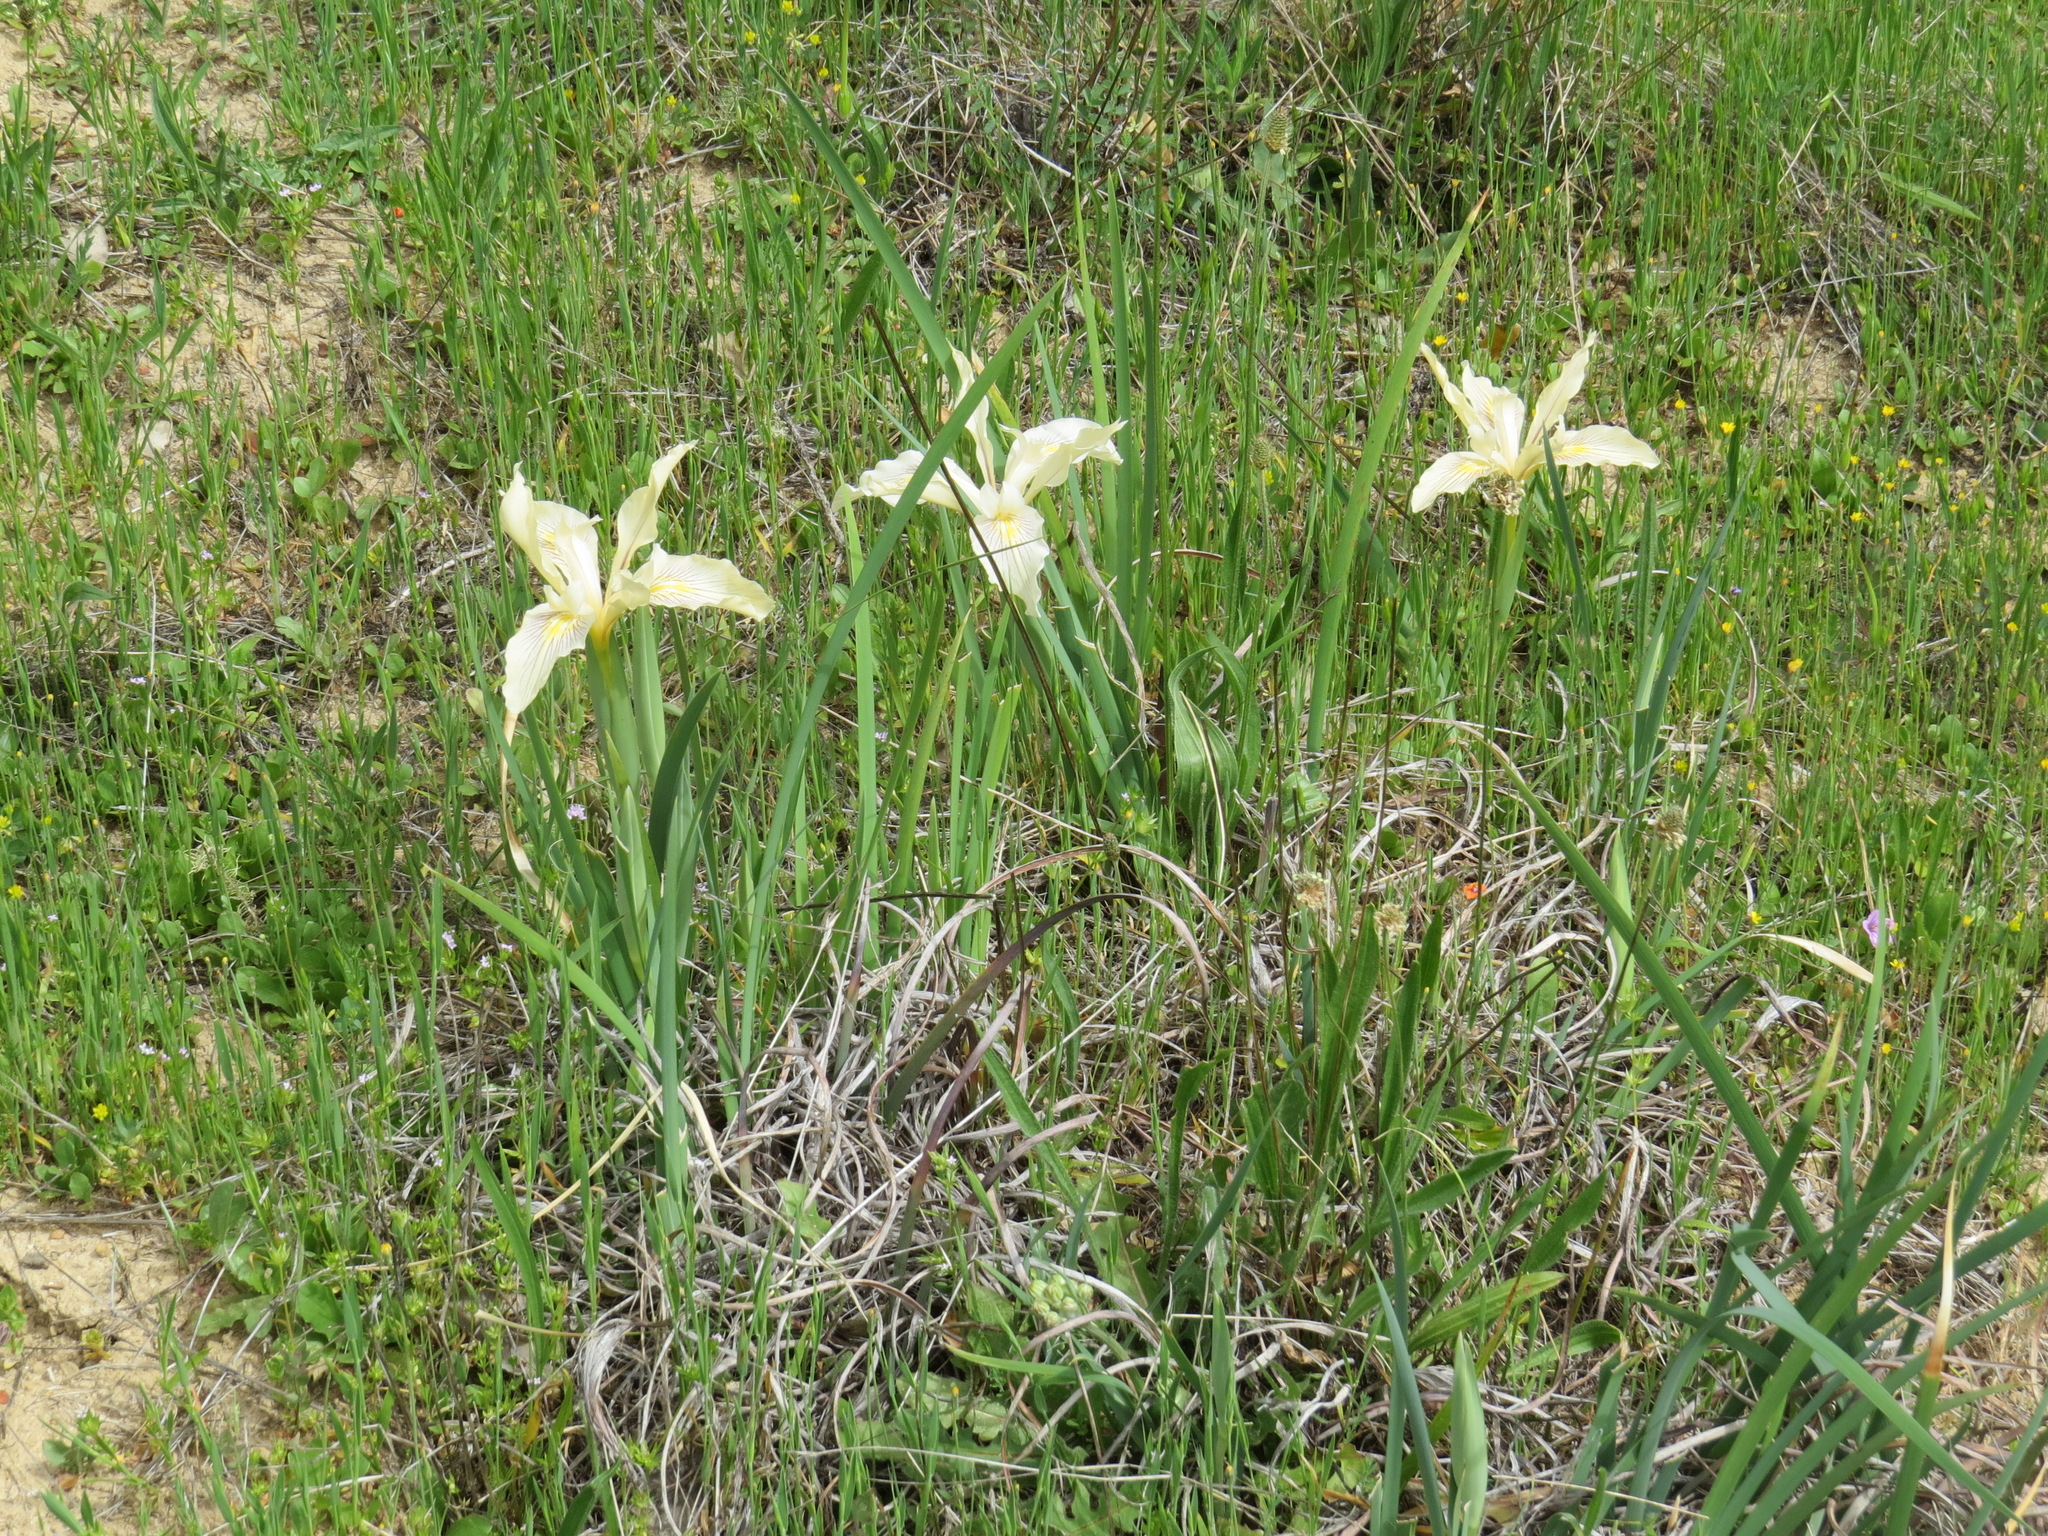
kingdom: Plantae
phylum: Tracheophyta
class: Liliopsida
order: Asparagales
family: Iridaceae
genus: Iris
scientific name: Iris fernaldii
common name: Fernald's iris
